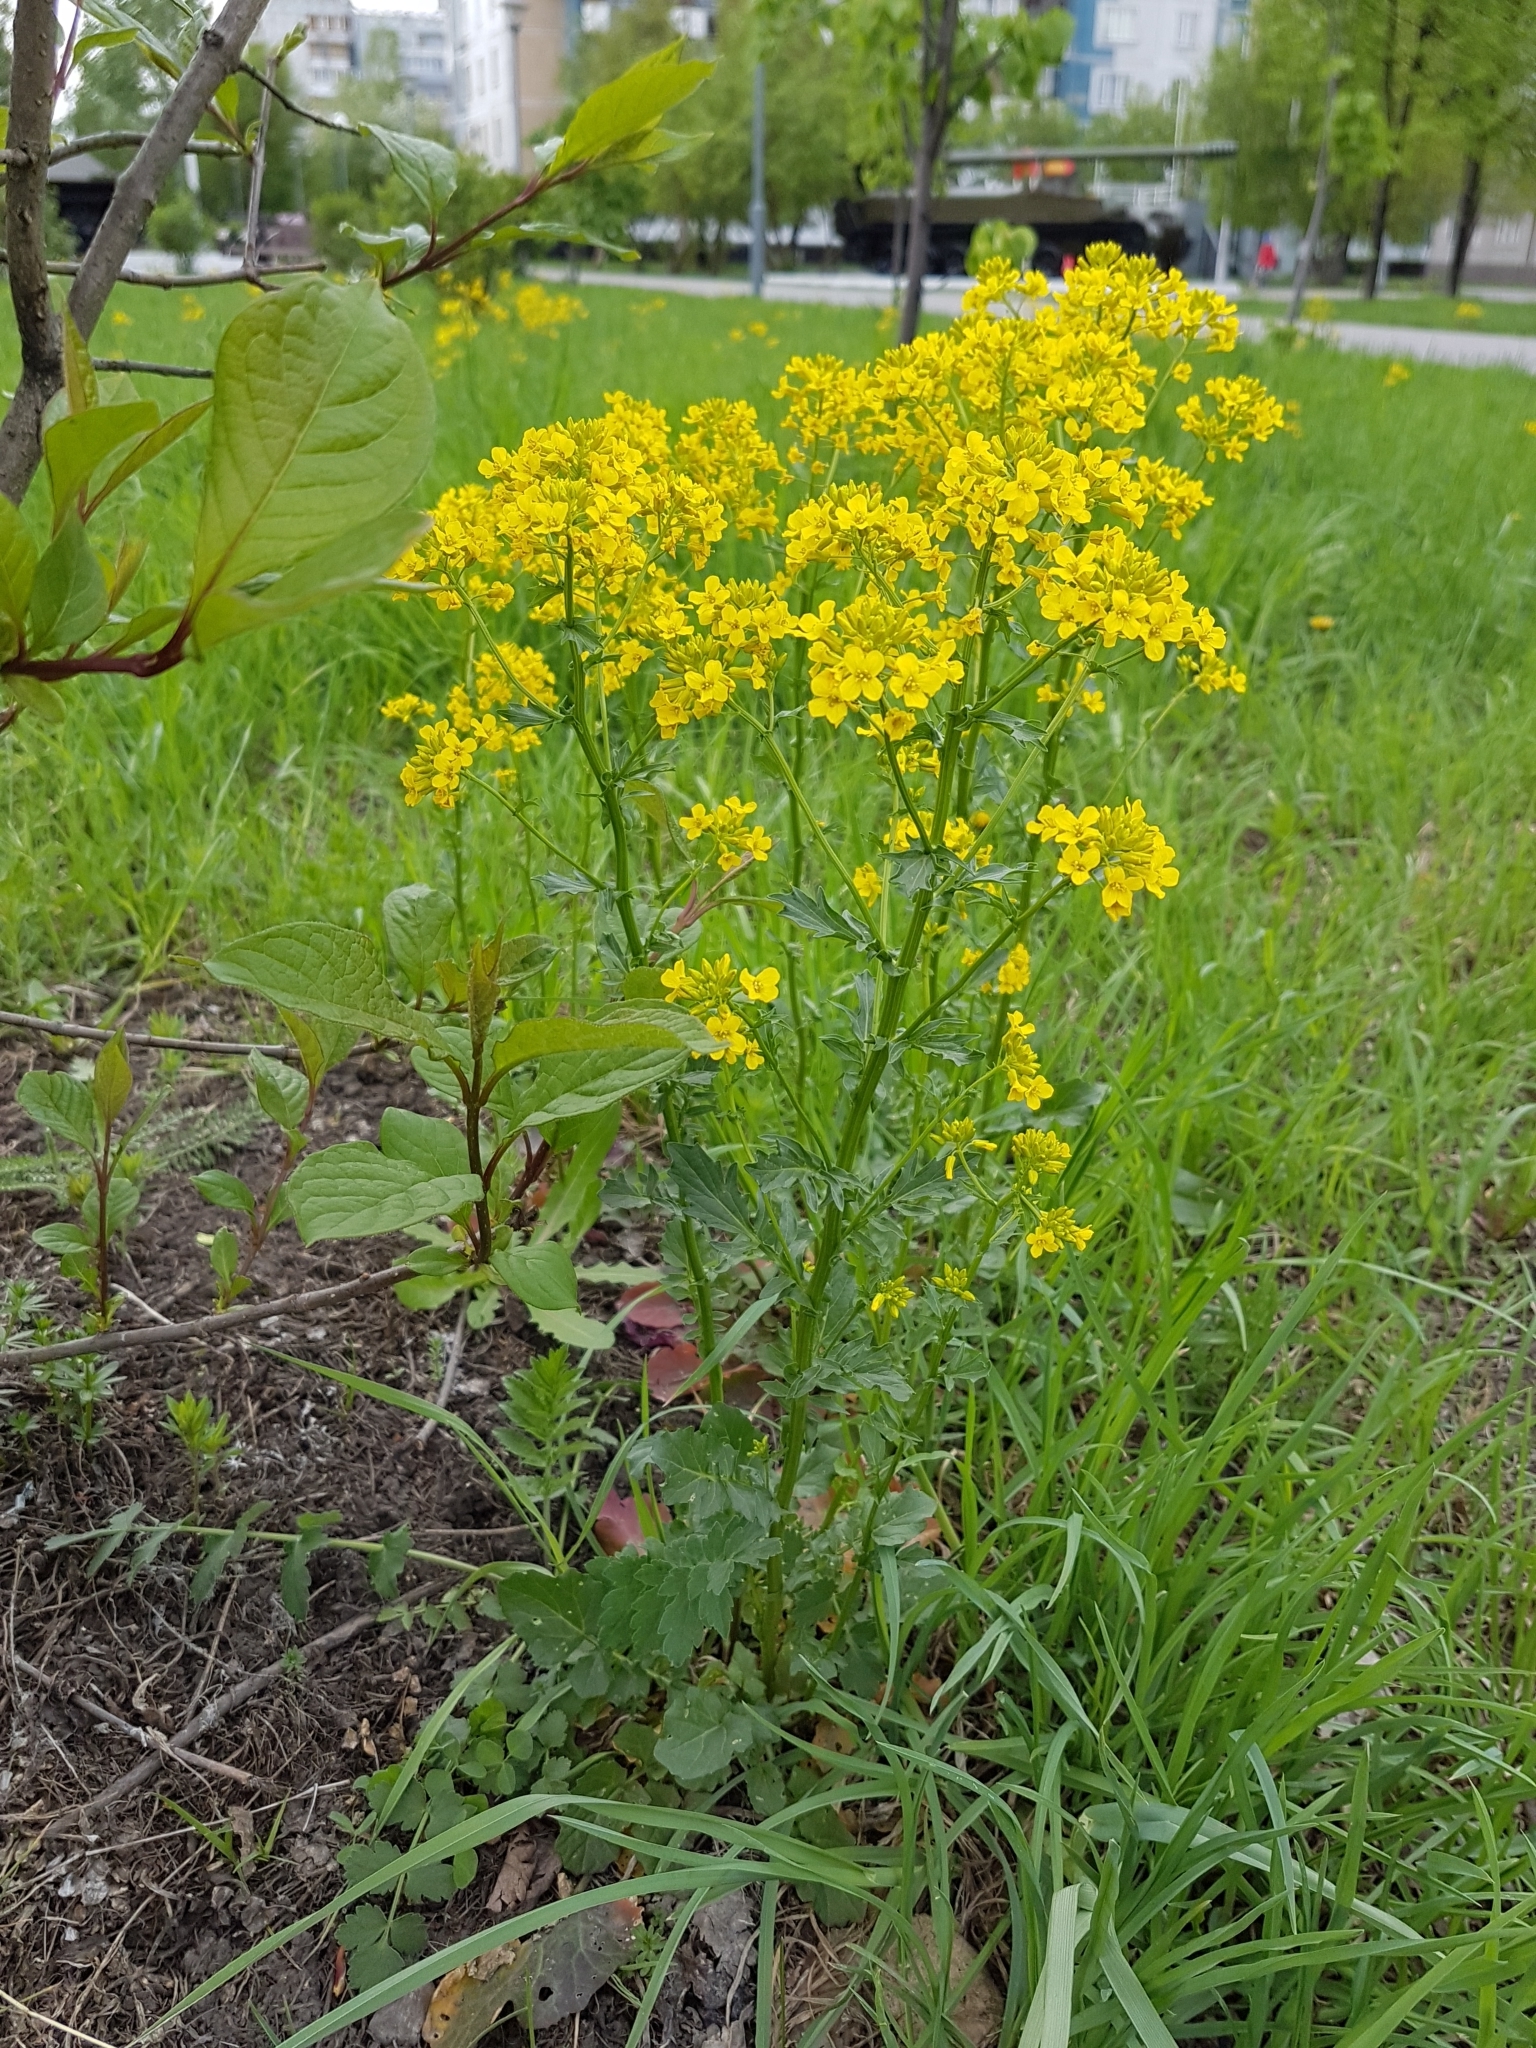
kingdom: Plantae
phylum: Tracheophyta
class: Magnoliopsida
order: Brassicales
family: Brassicaceae
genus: Barbarea
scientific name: Barbarea vulgaris
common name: Cressy-greens
